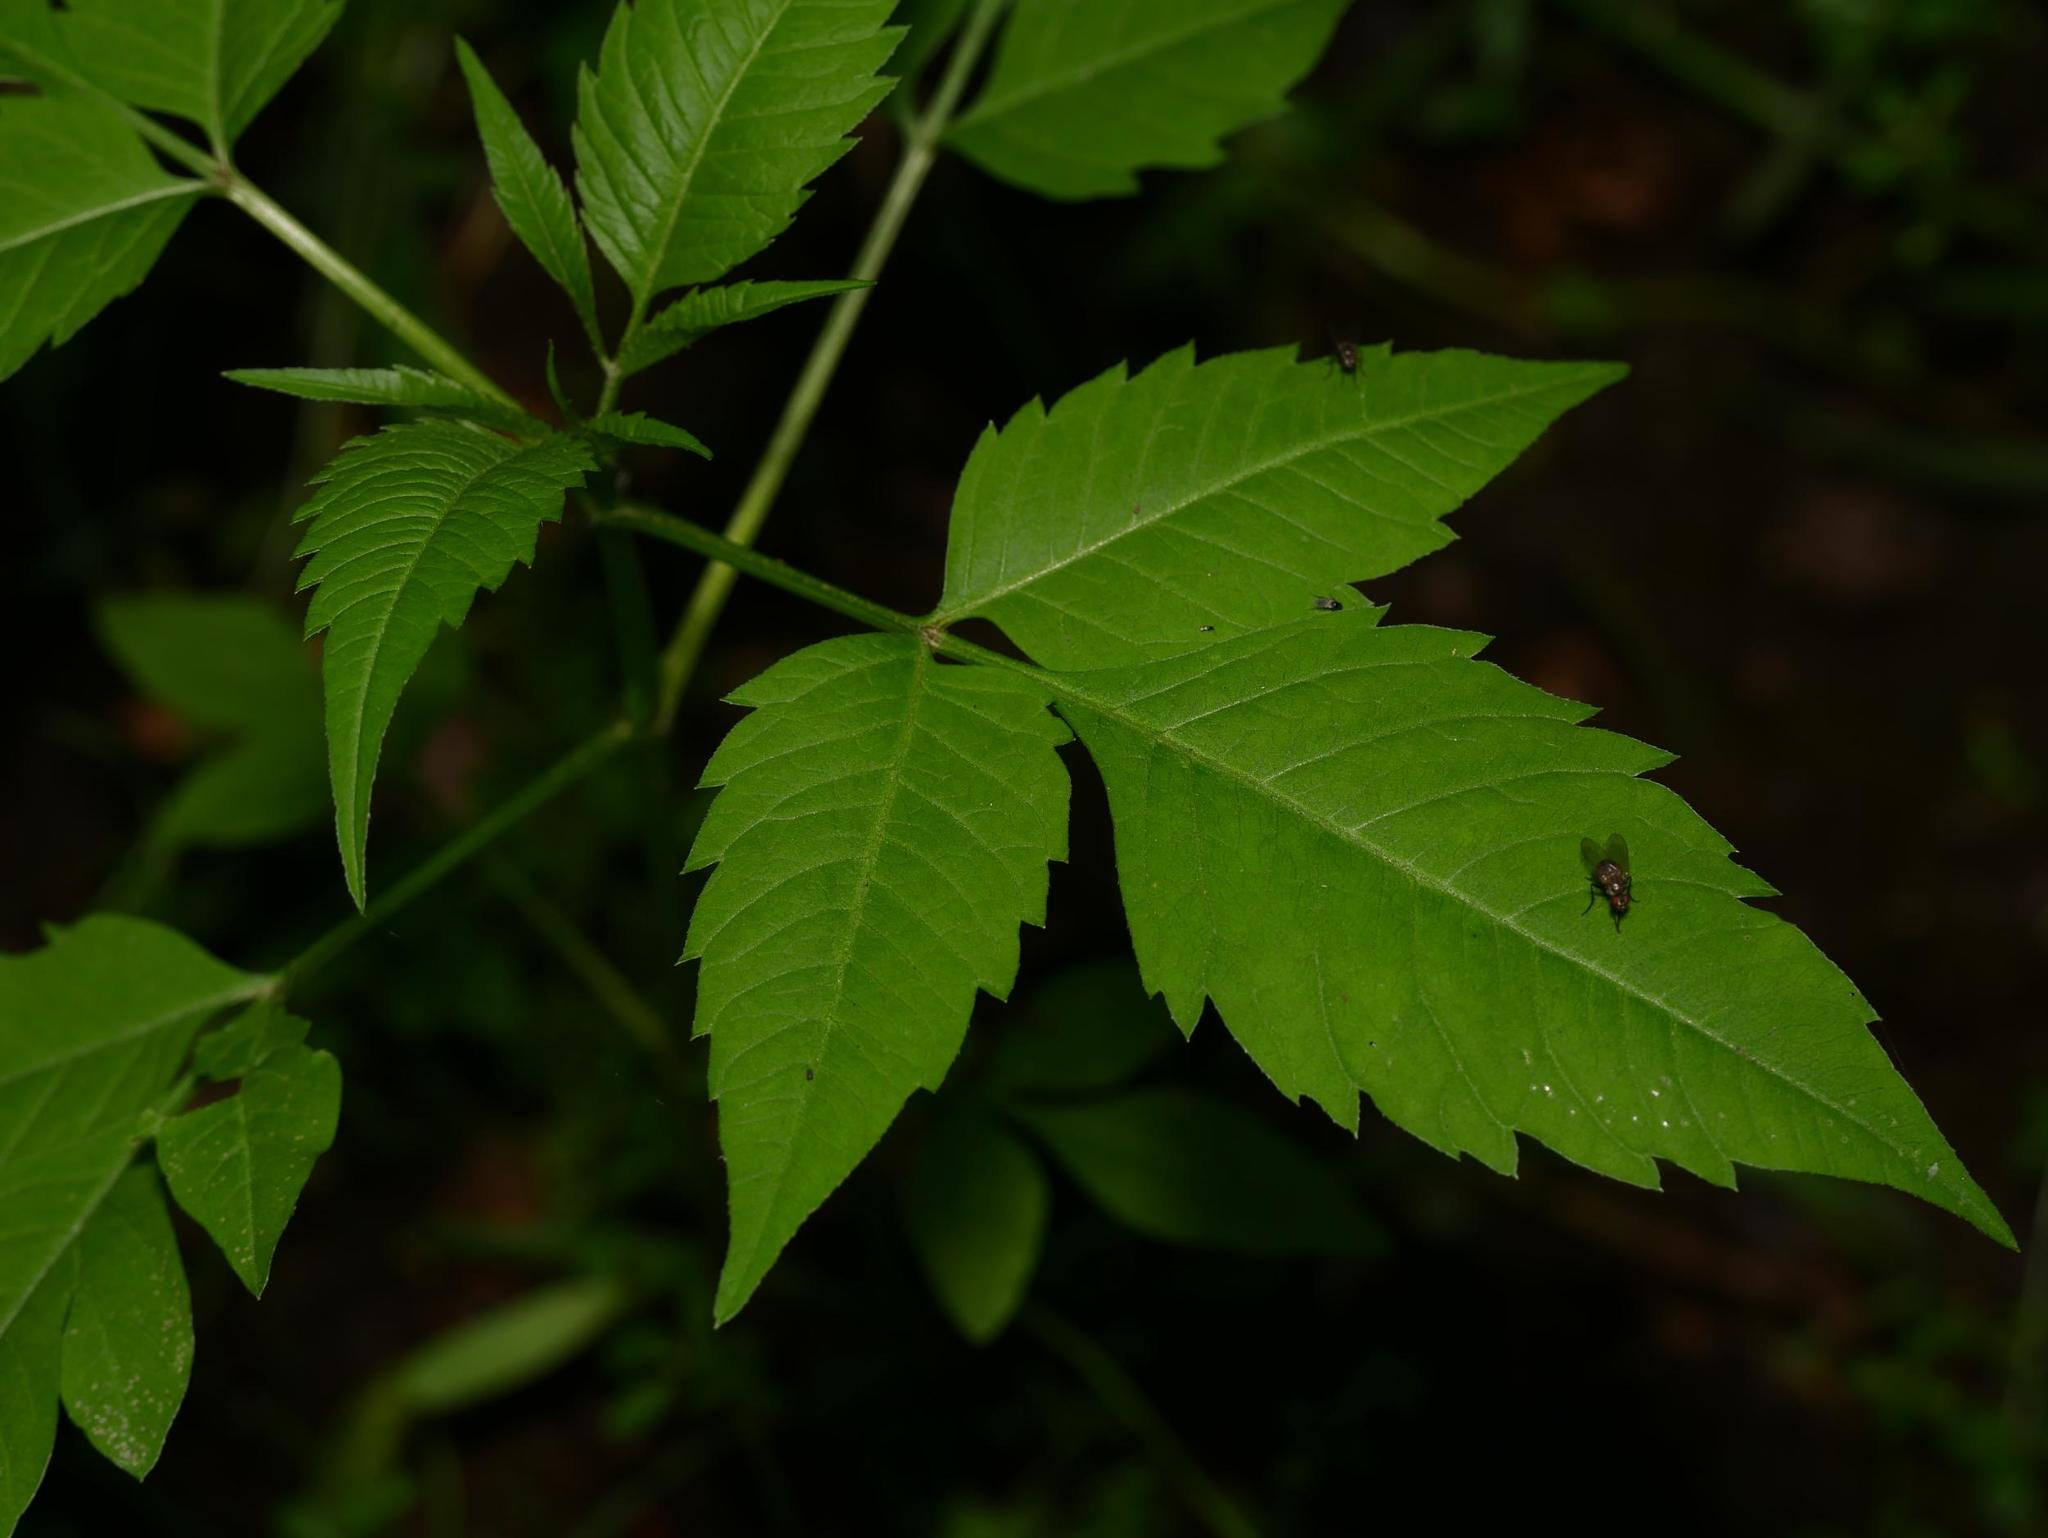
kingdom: Plantae
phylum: Tracheophyta
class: Magnoliopsida
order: Asterales
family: Asteraceae
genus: Bidens
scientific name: Bidens frondosa
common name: Beggarticks
